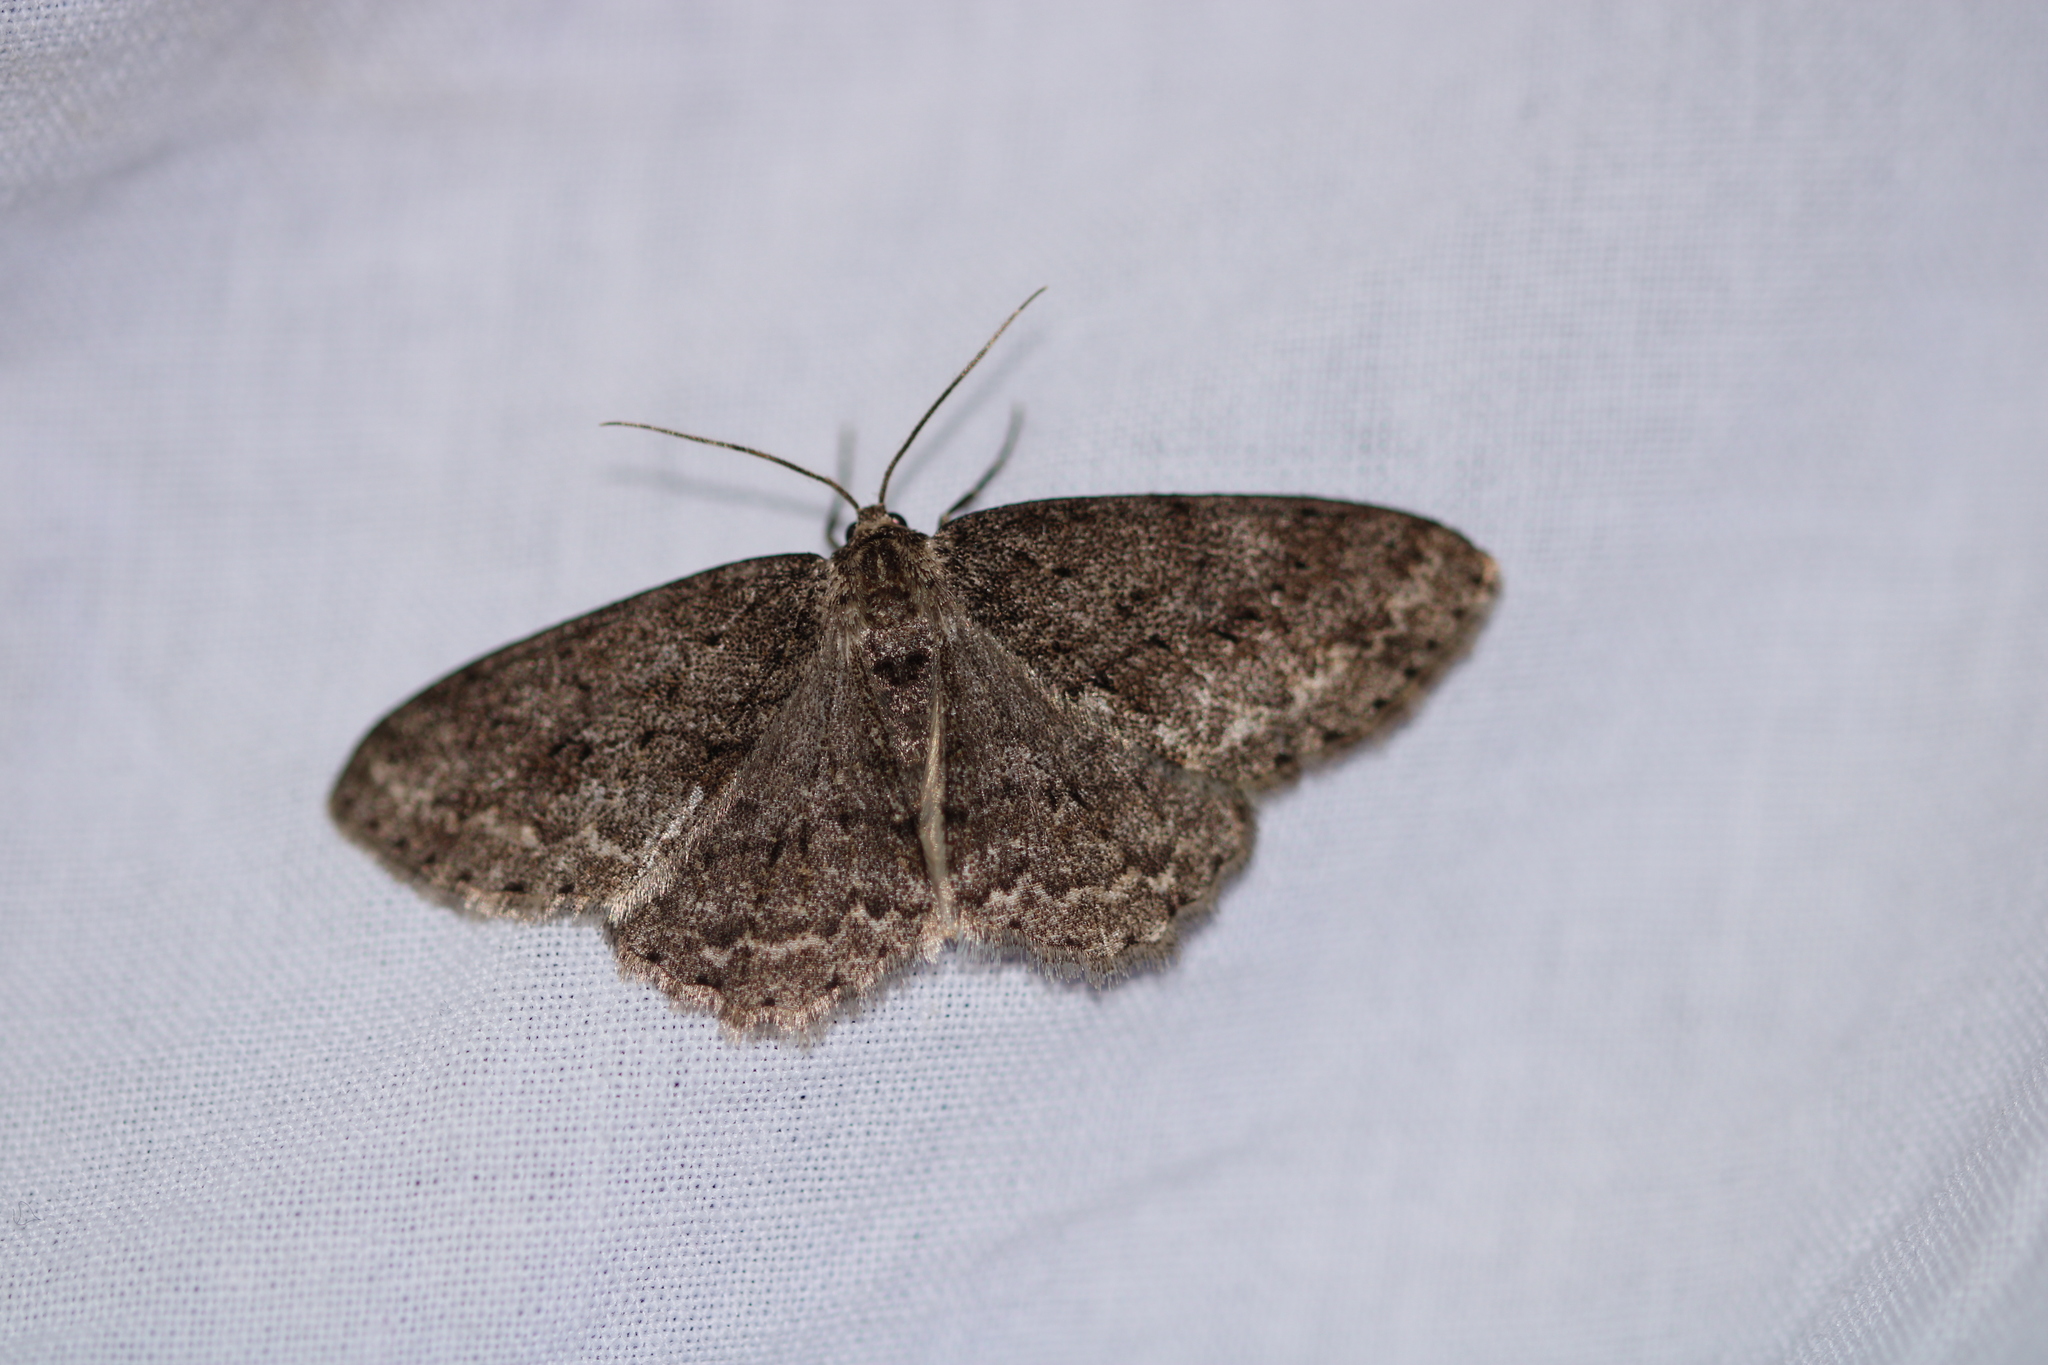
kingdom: Animalia
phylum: Arthropoda
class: Insecta
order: Lepidoptera
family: Geometridae
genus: Ectropis
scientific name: Ectropis crepuscularia
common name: Engrailed
